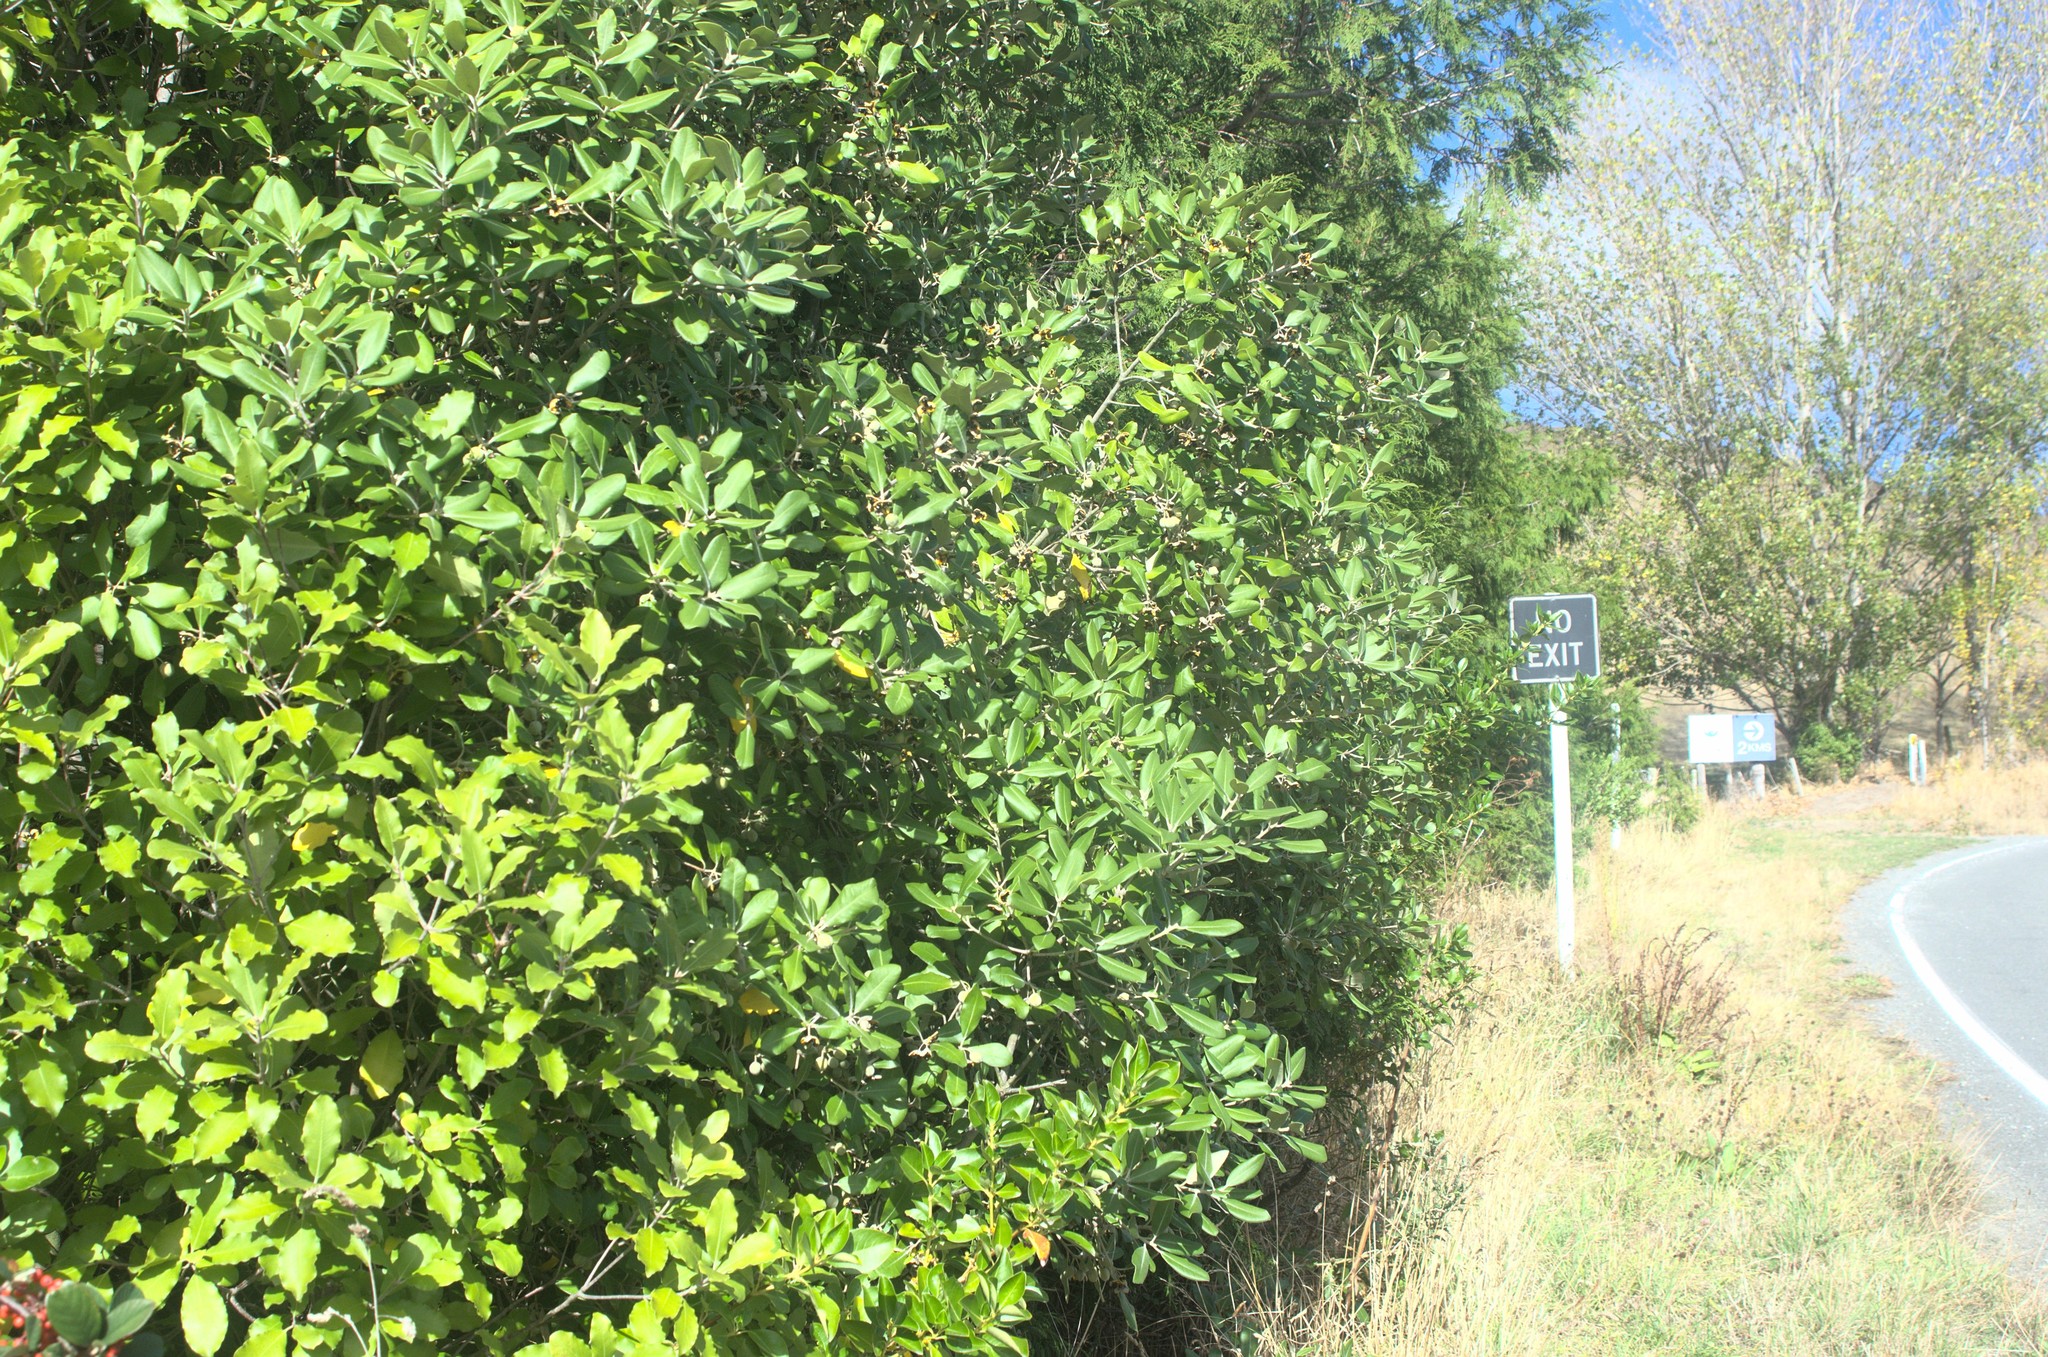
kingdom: Plantae
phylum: Tracheophyta
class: Magnoliopsida
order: Apiales
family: Pittosporaceae
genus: Pittosporum
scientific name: Pittosporum ralphii
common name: Ralph's desertwillow
